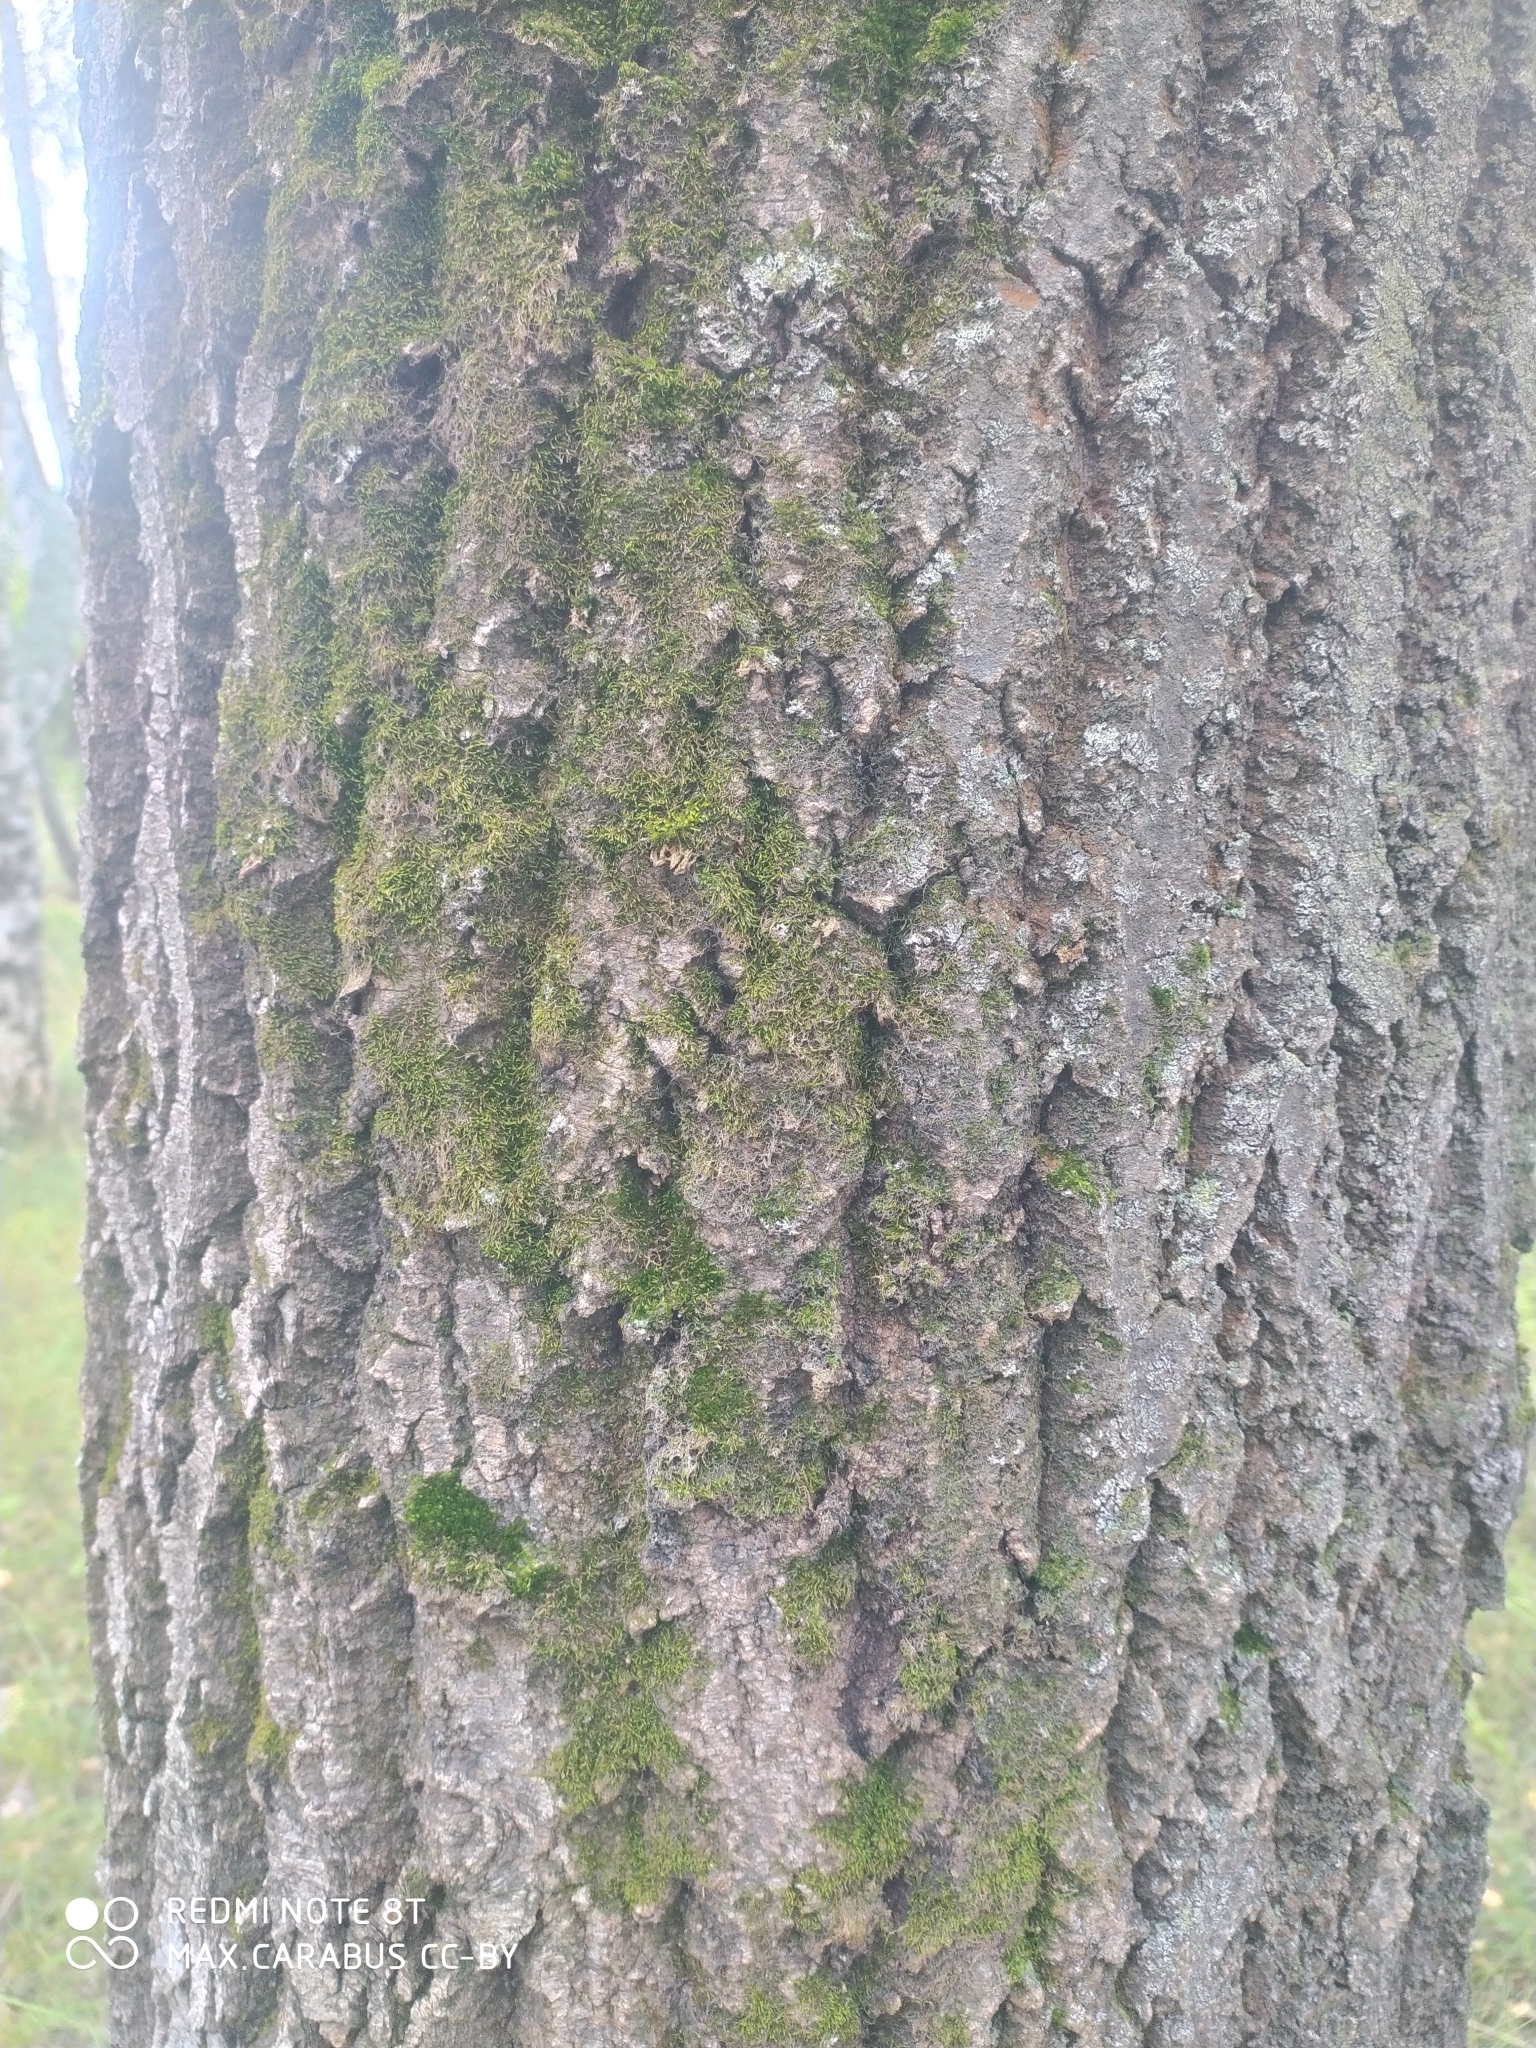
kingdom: Plantae
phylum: Tracheophyta
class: Magnoliopsida
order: Malpighiales
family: Salicaceae
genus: Populus
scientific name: Populus tremula
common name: European aspen
